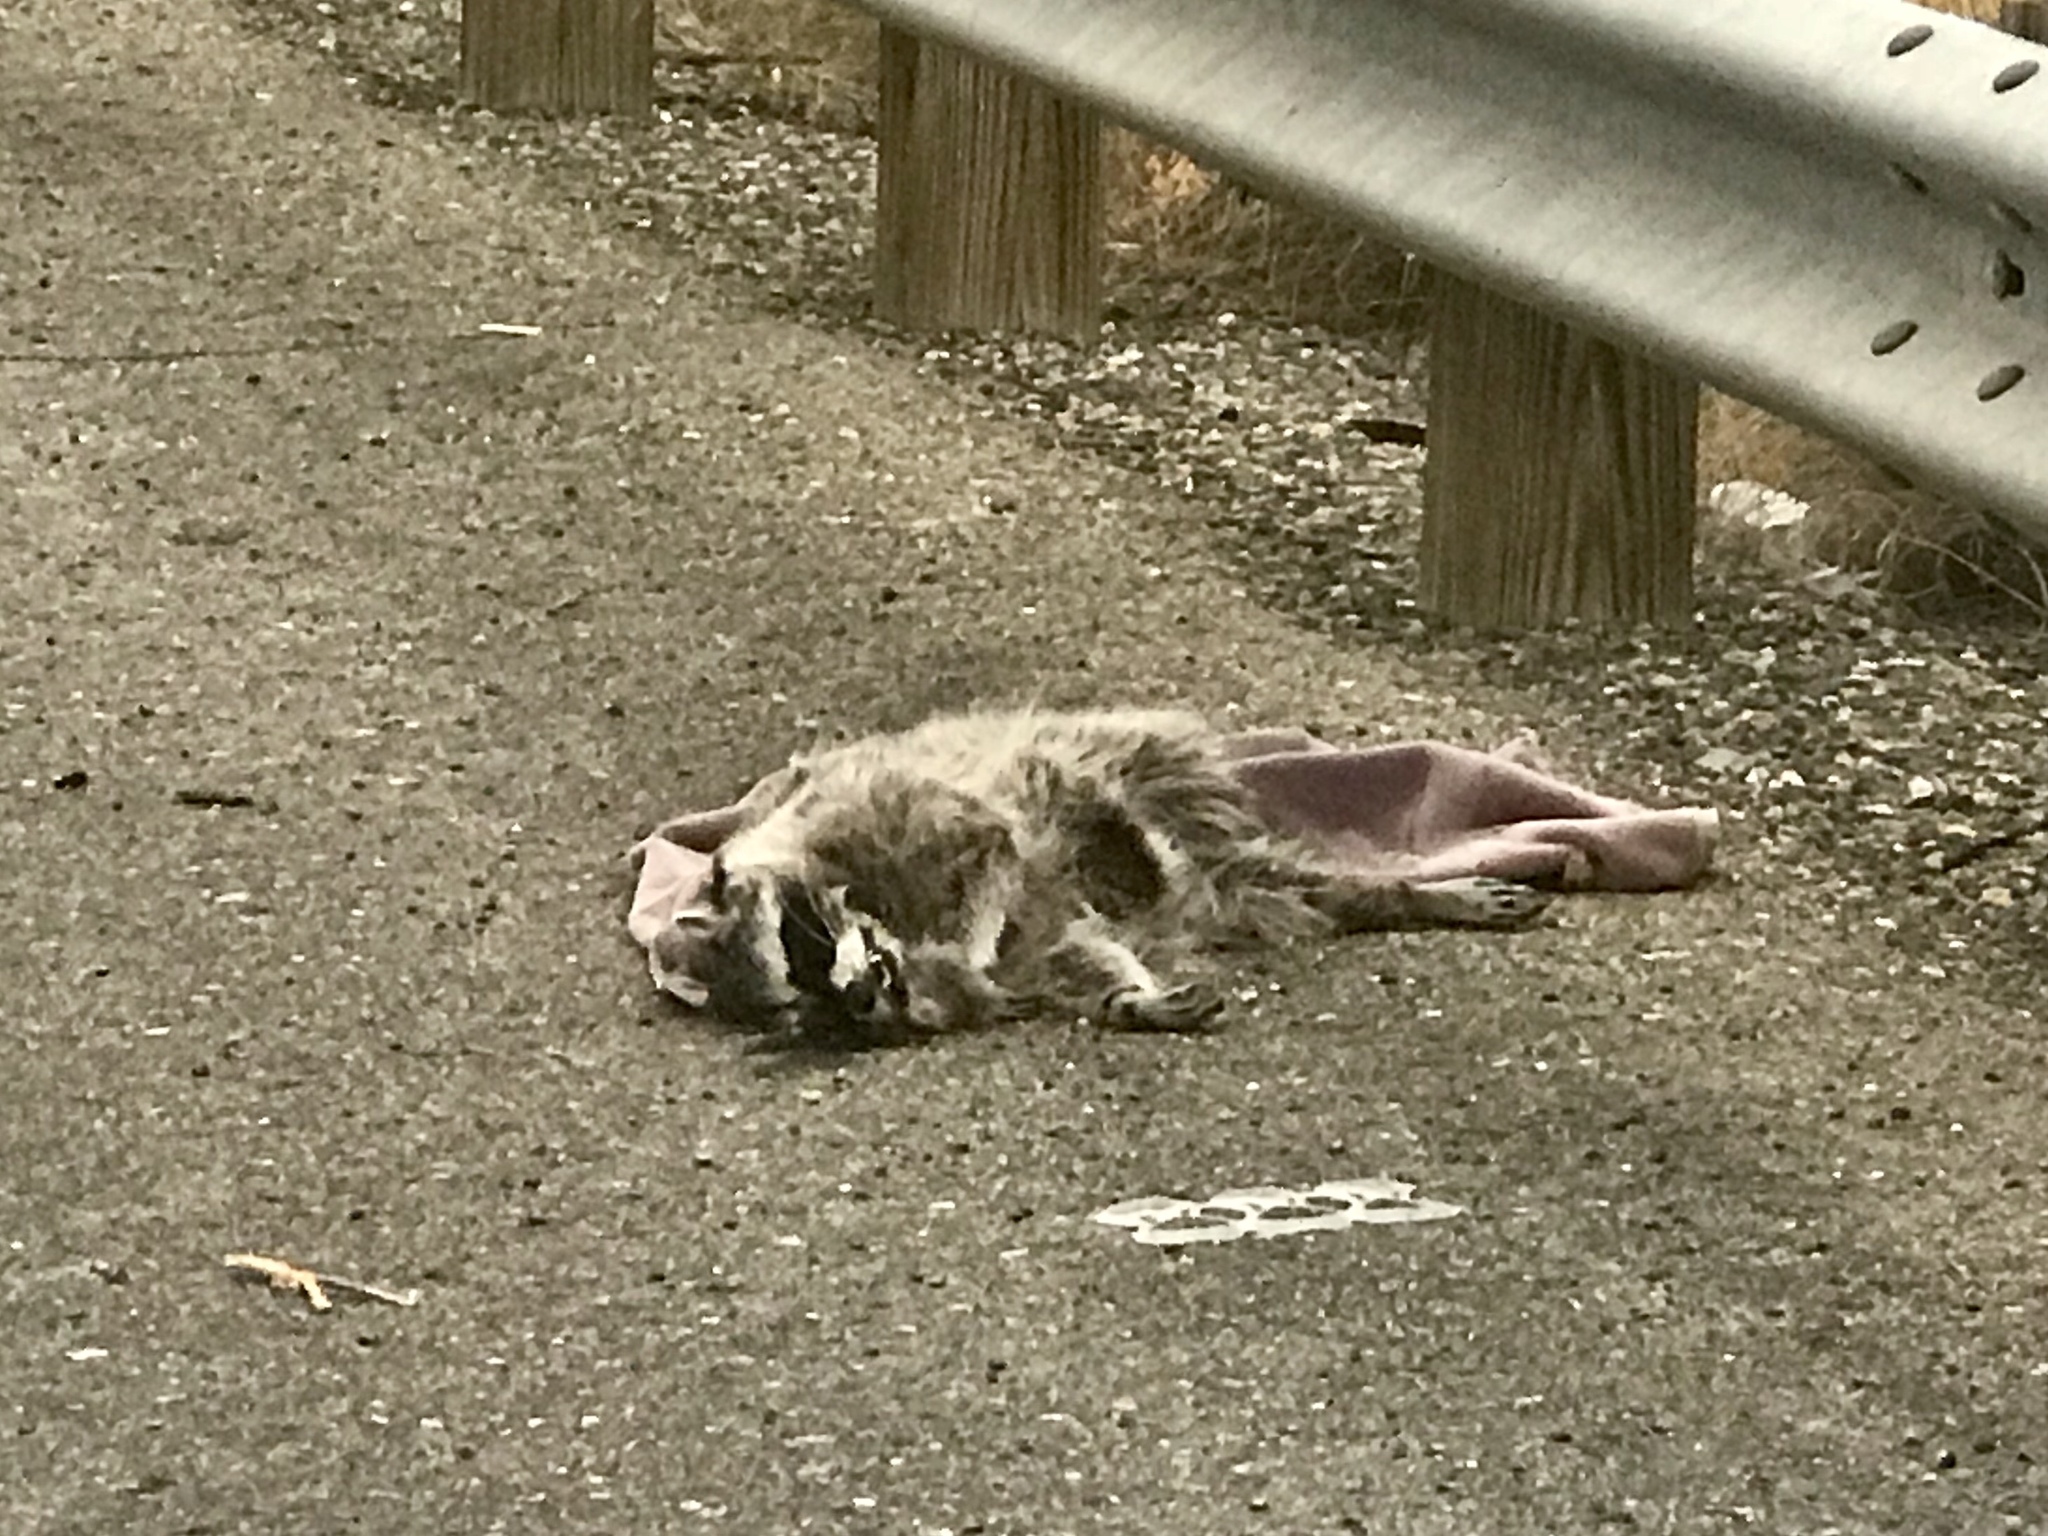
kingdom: Animalia
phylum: Chordata
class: Mammalia
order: Carnivora
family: Procyonidae
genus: Procyon
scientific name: Procyon lotor
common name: Raccoon
